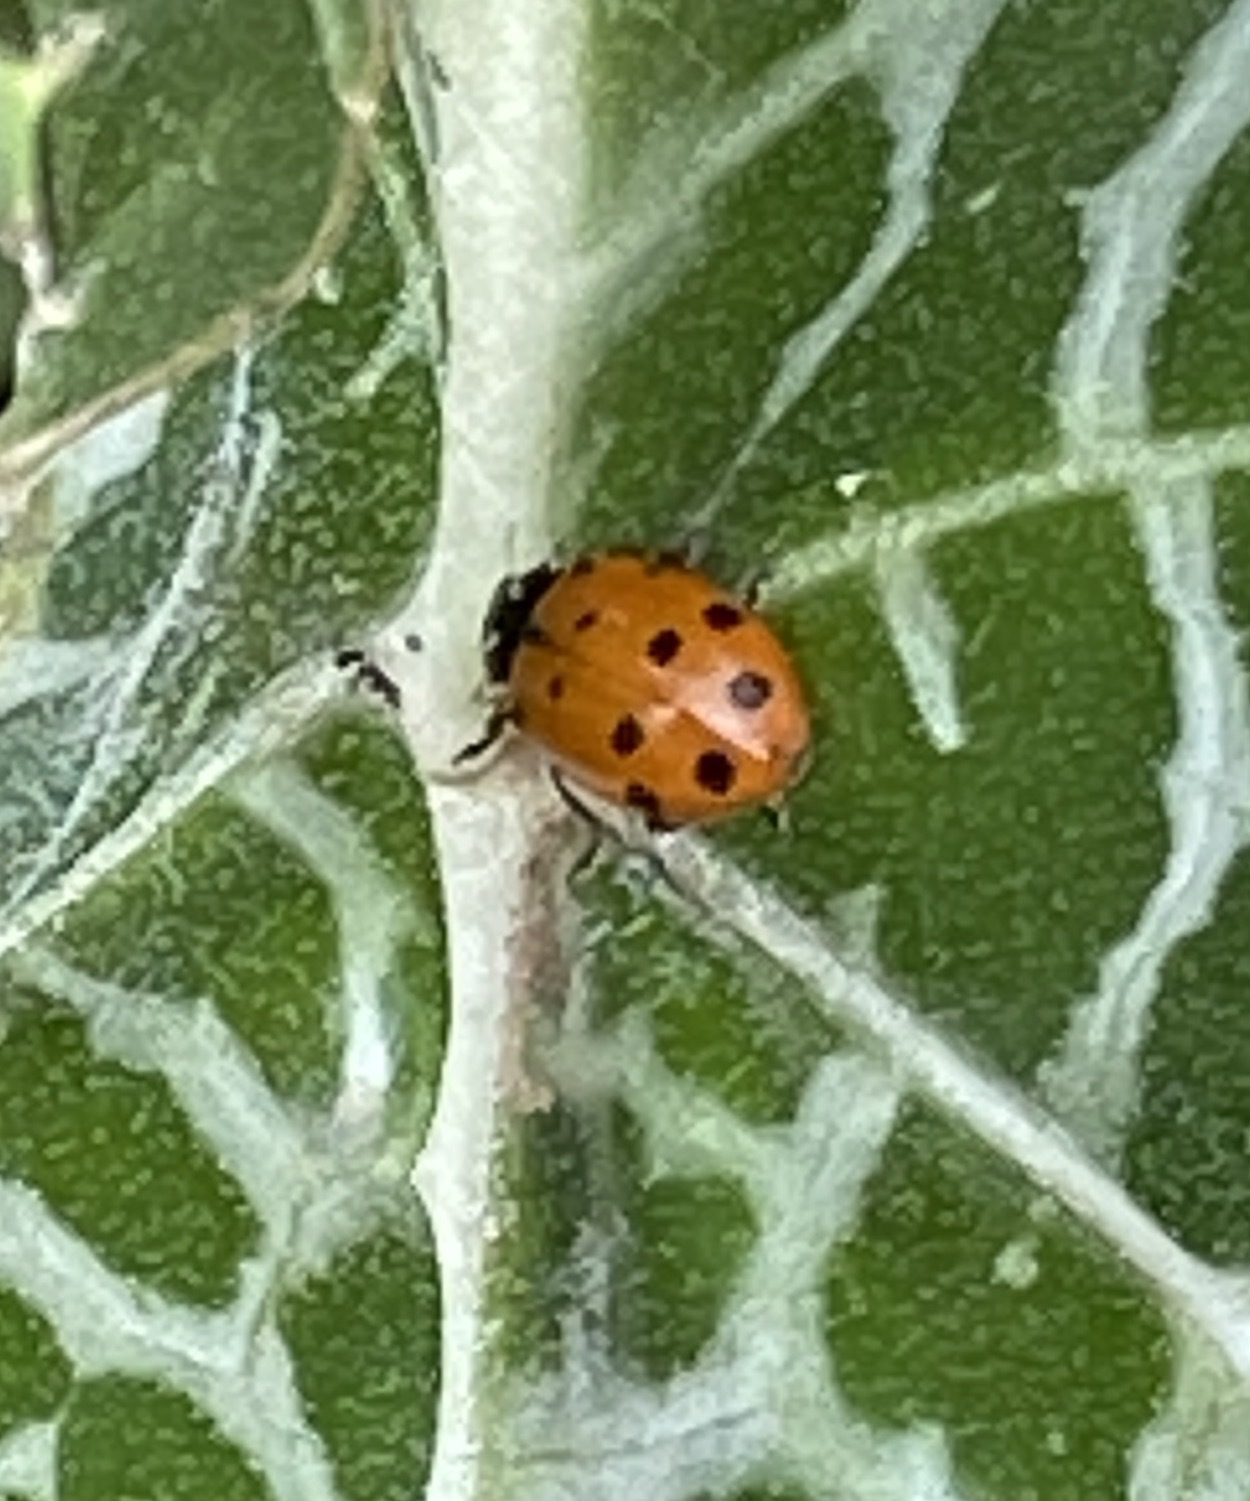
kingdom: Animalia
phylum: Arthropoda
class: Insecta
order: Coleoptera
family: Coccinellidae
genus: Hippodamia
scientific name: Hippodamia convergens
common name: Convergent lady beetle
